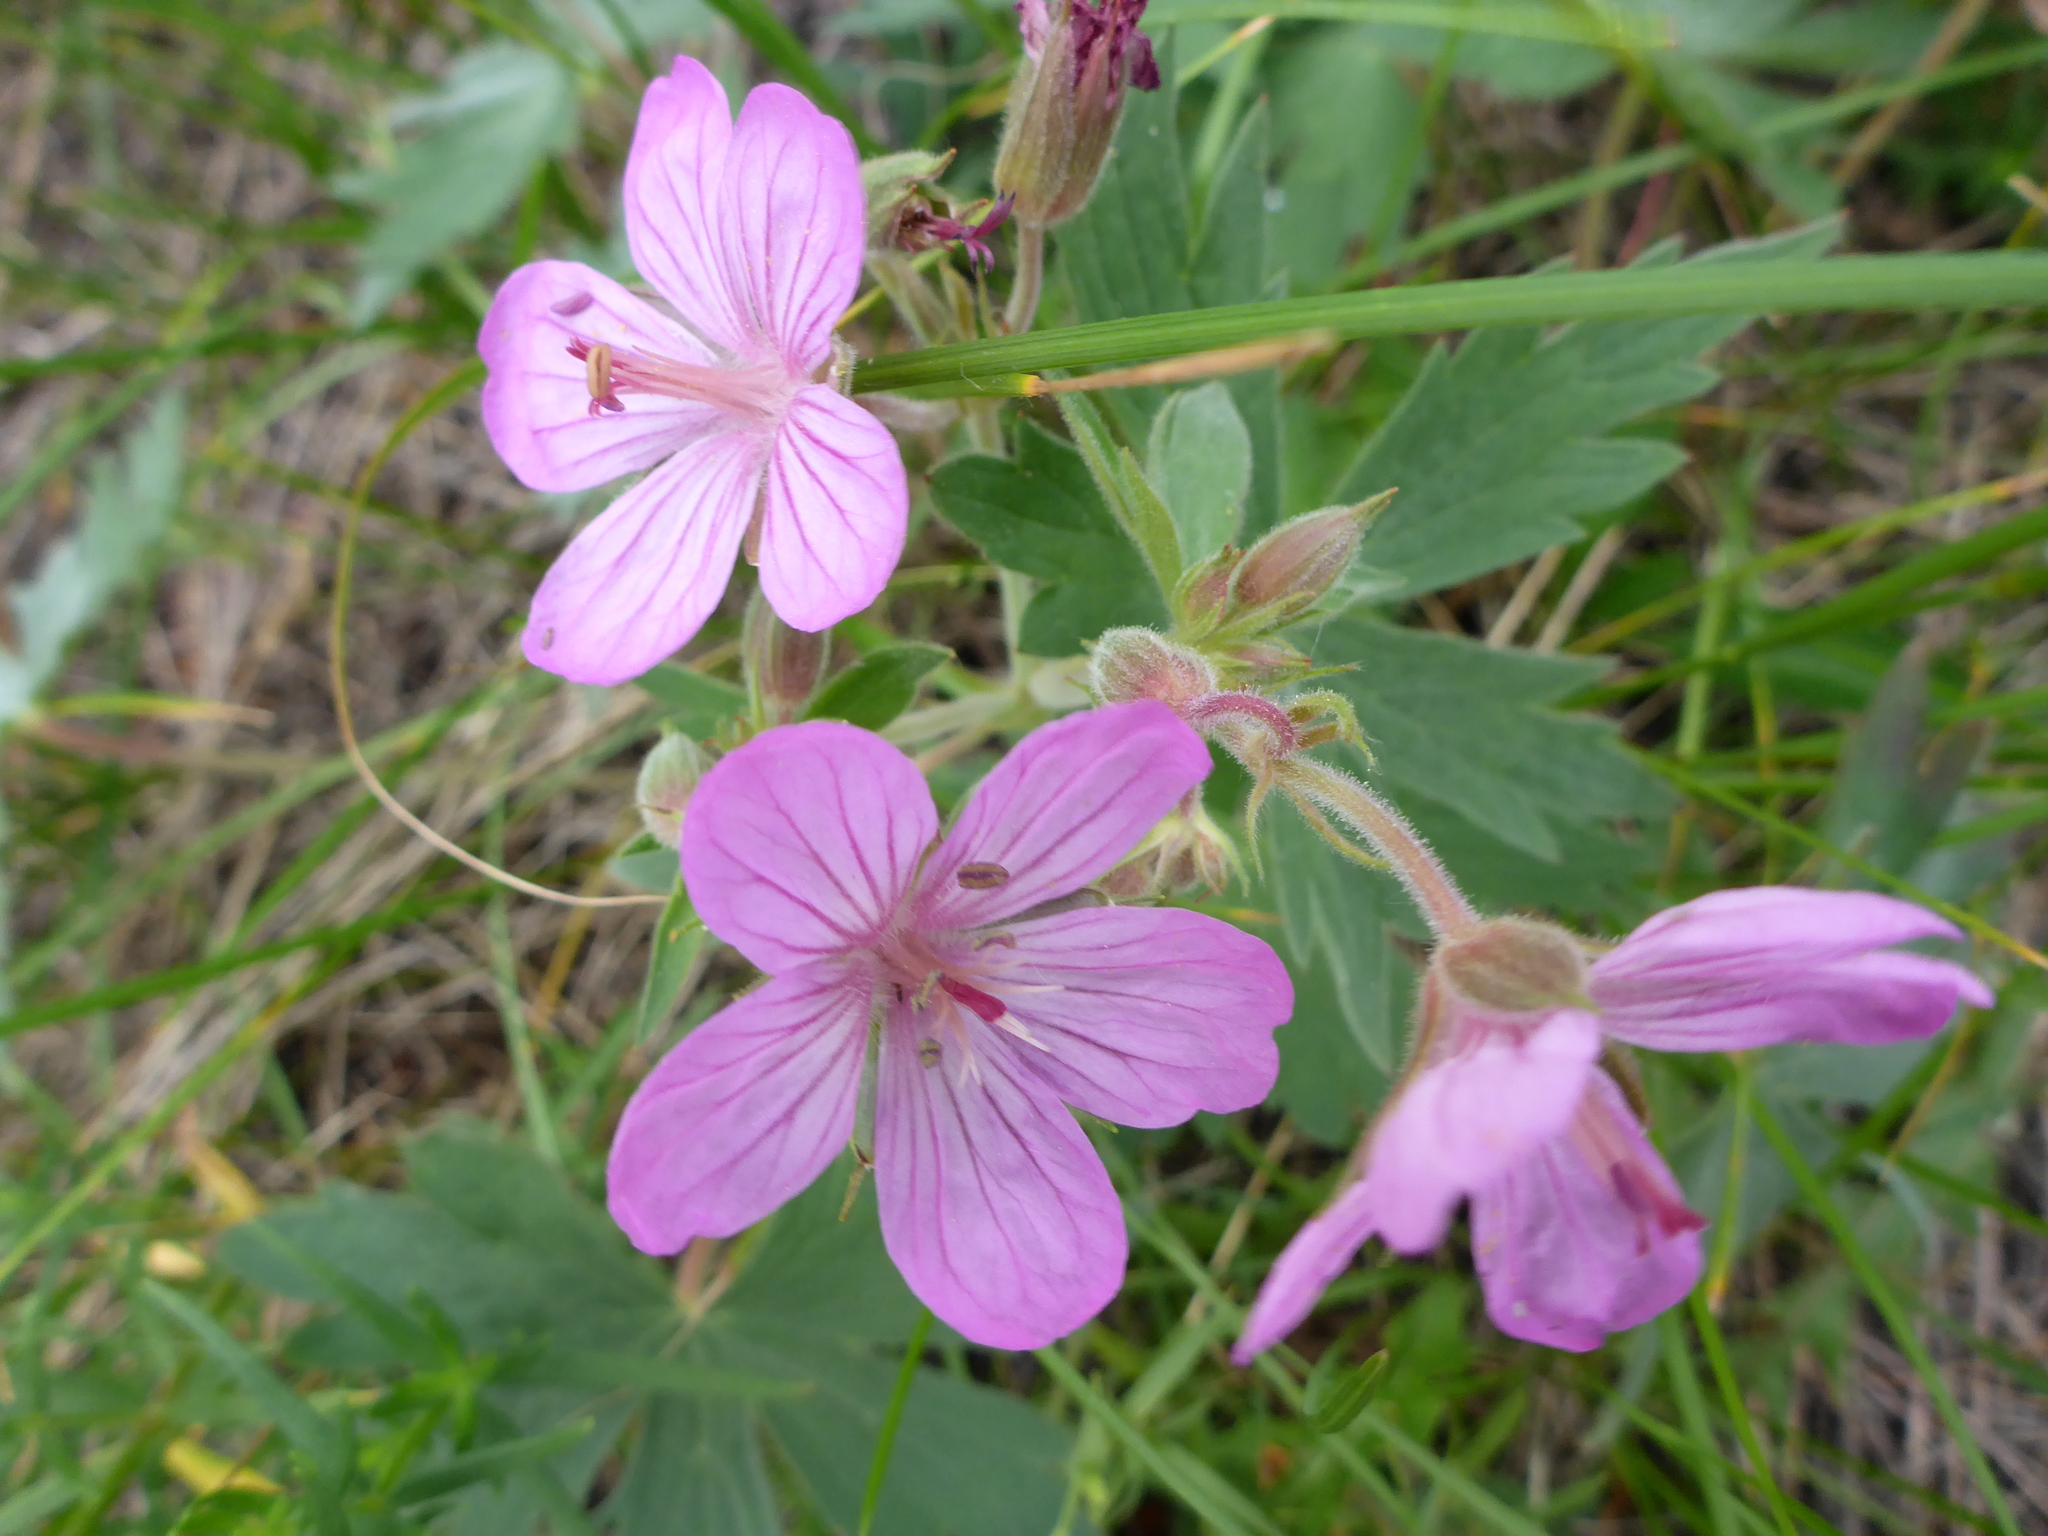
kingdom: Plantae
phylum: Tracheophyta
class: Magnoliopsida
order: Geraniales
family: Geraniaceae
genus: Geranium
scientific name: Geranium viscosissimum
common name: Purple geranium
